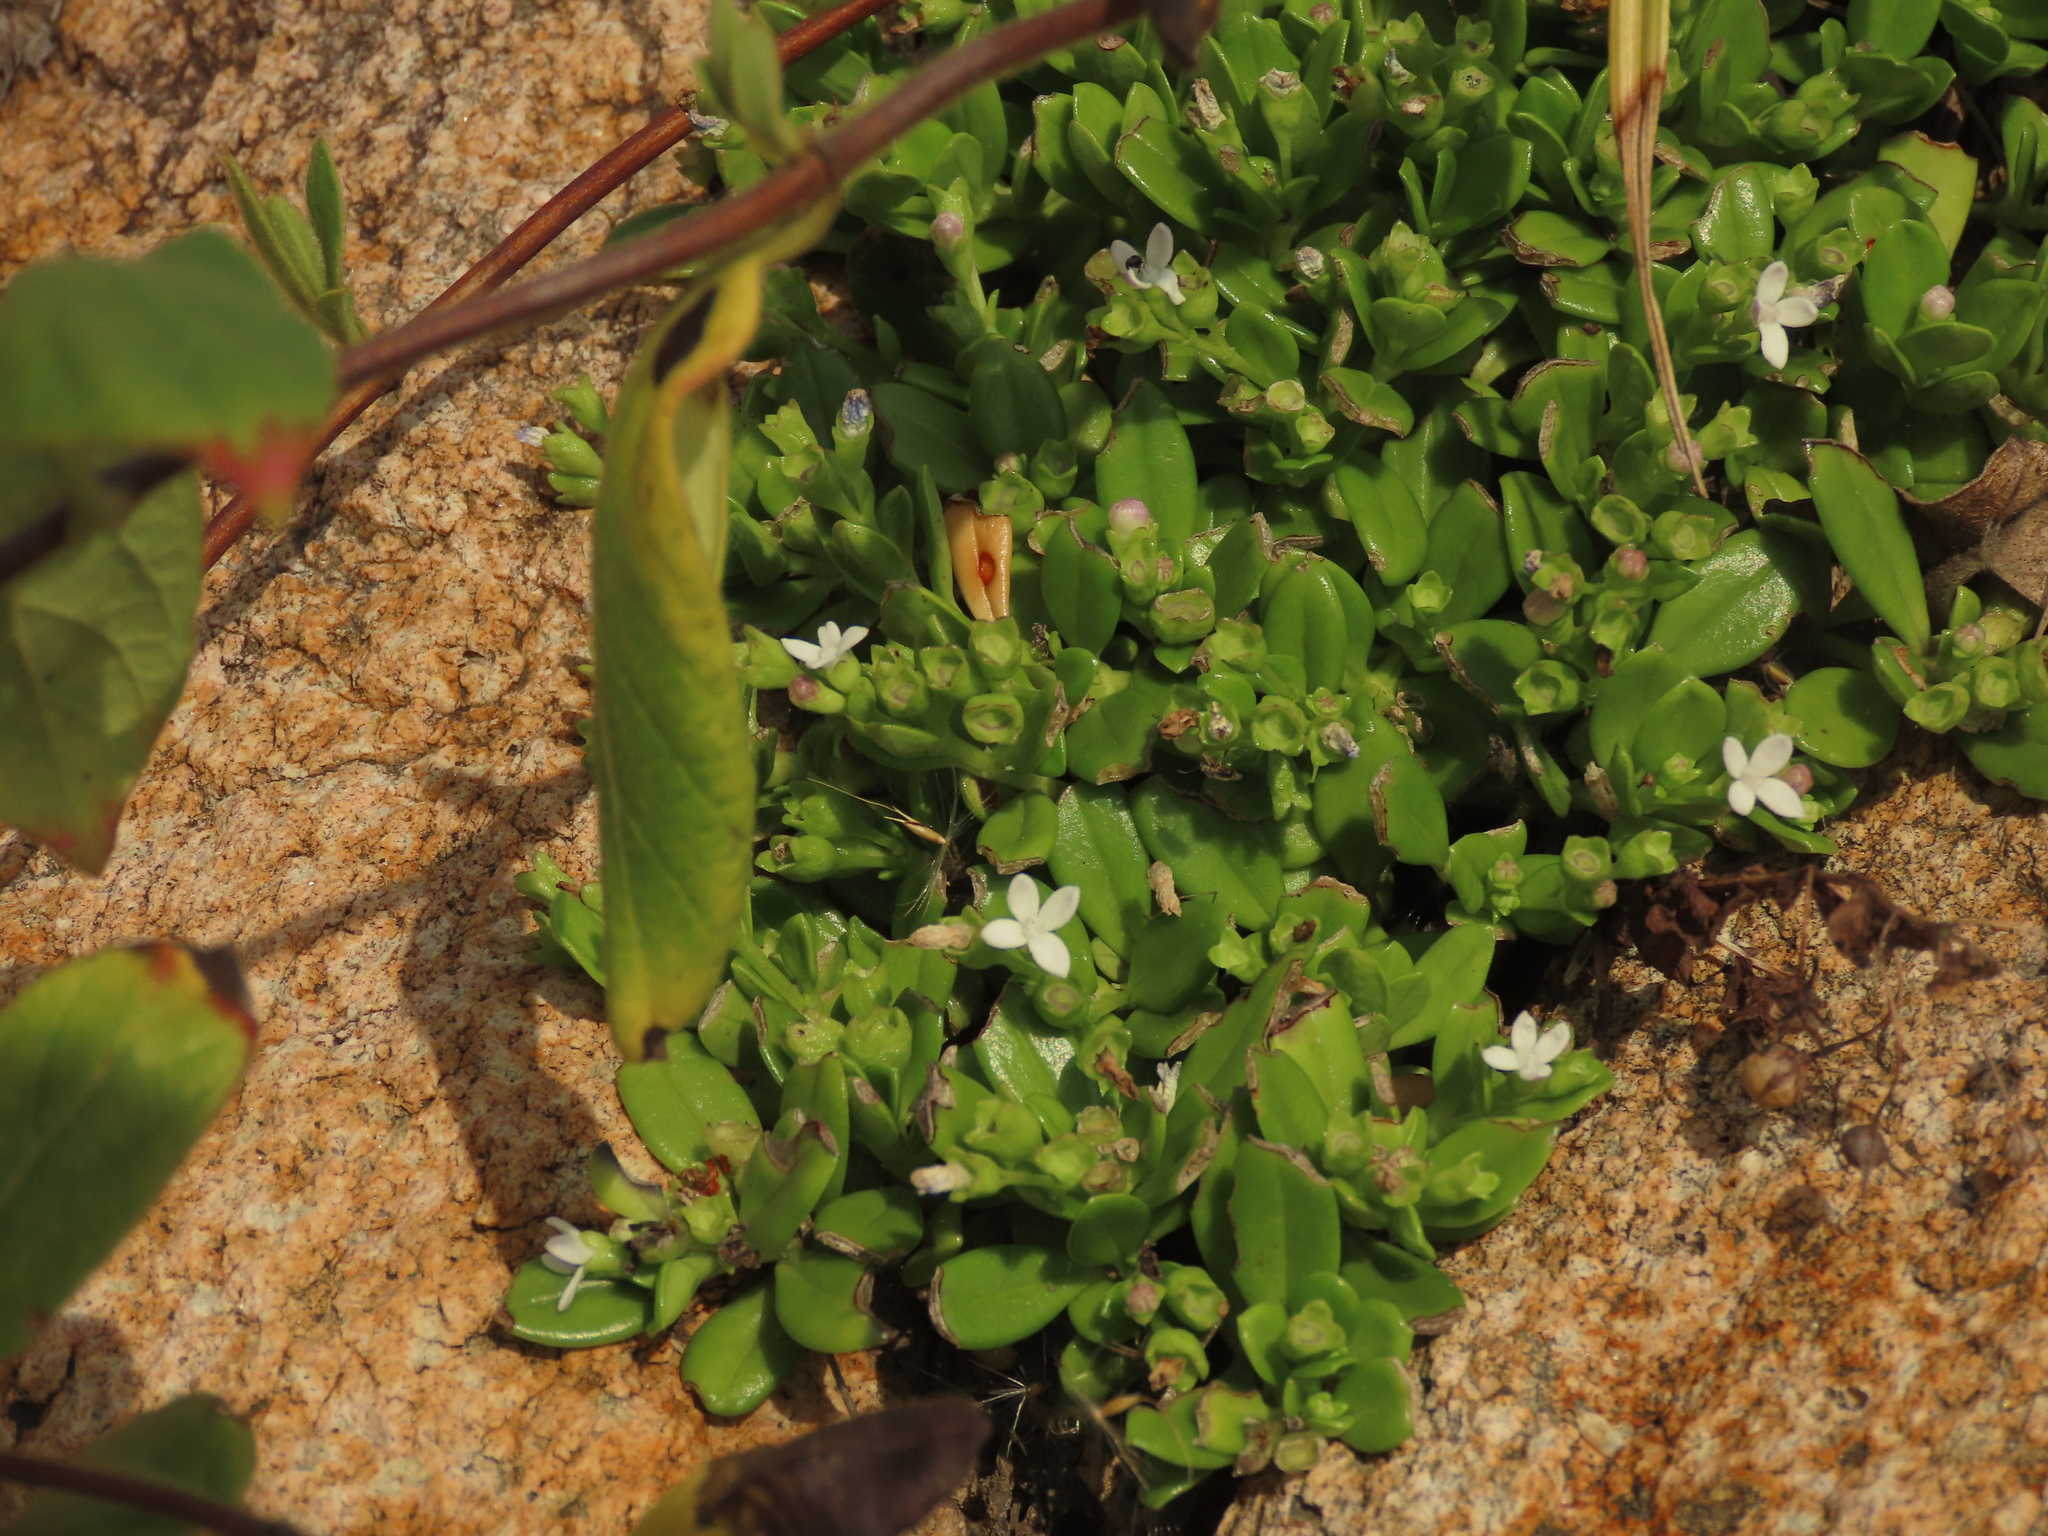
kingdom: Plantae
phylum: Tracheophyta
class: Magnoliopsida
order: Gentianales
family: Rubiaceae
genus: Leptopetalum
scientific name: Leptopetalum strigulosum
